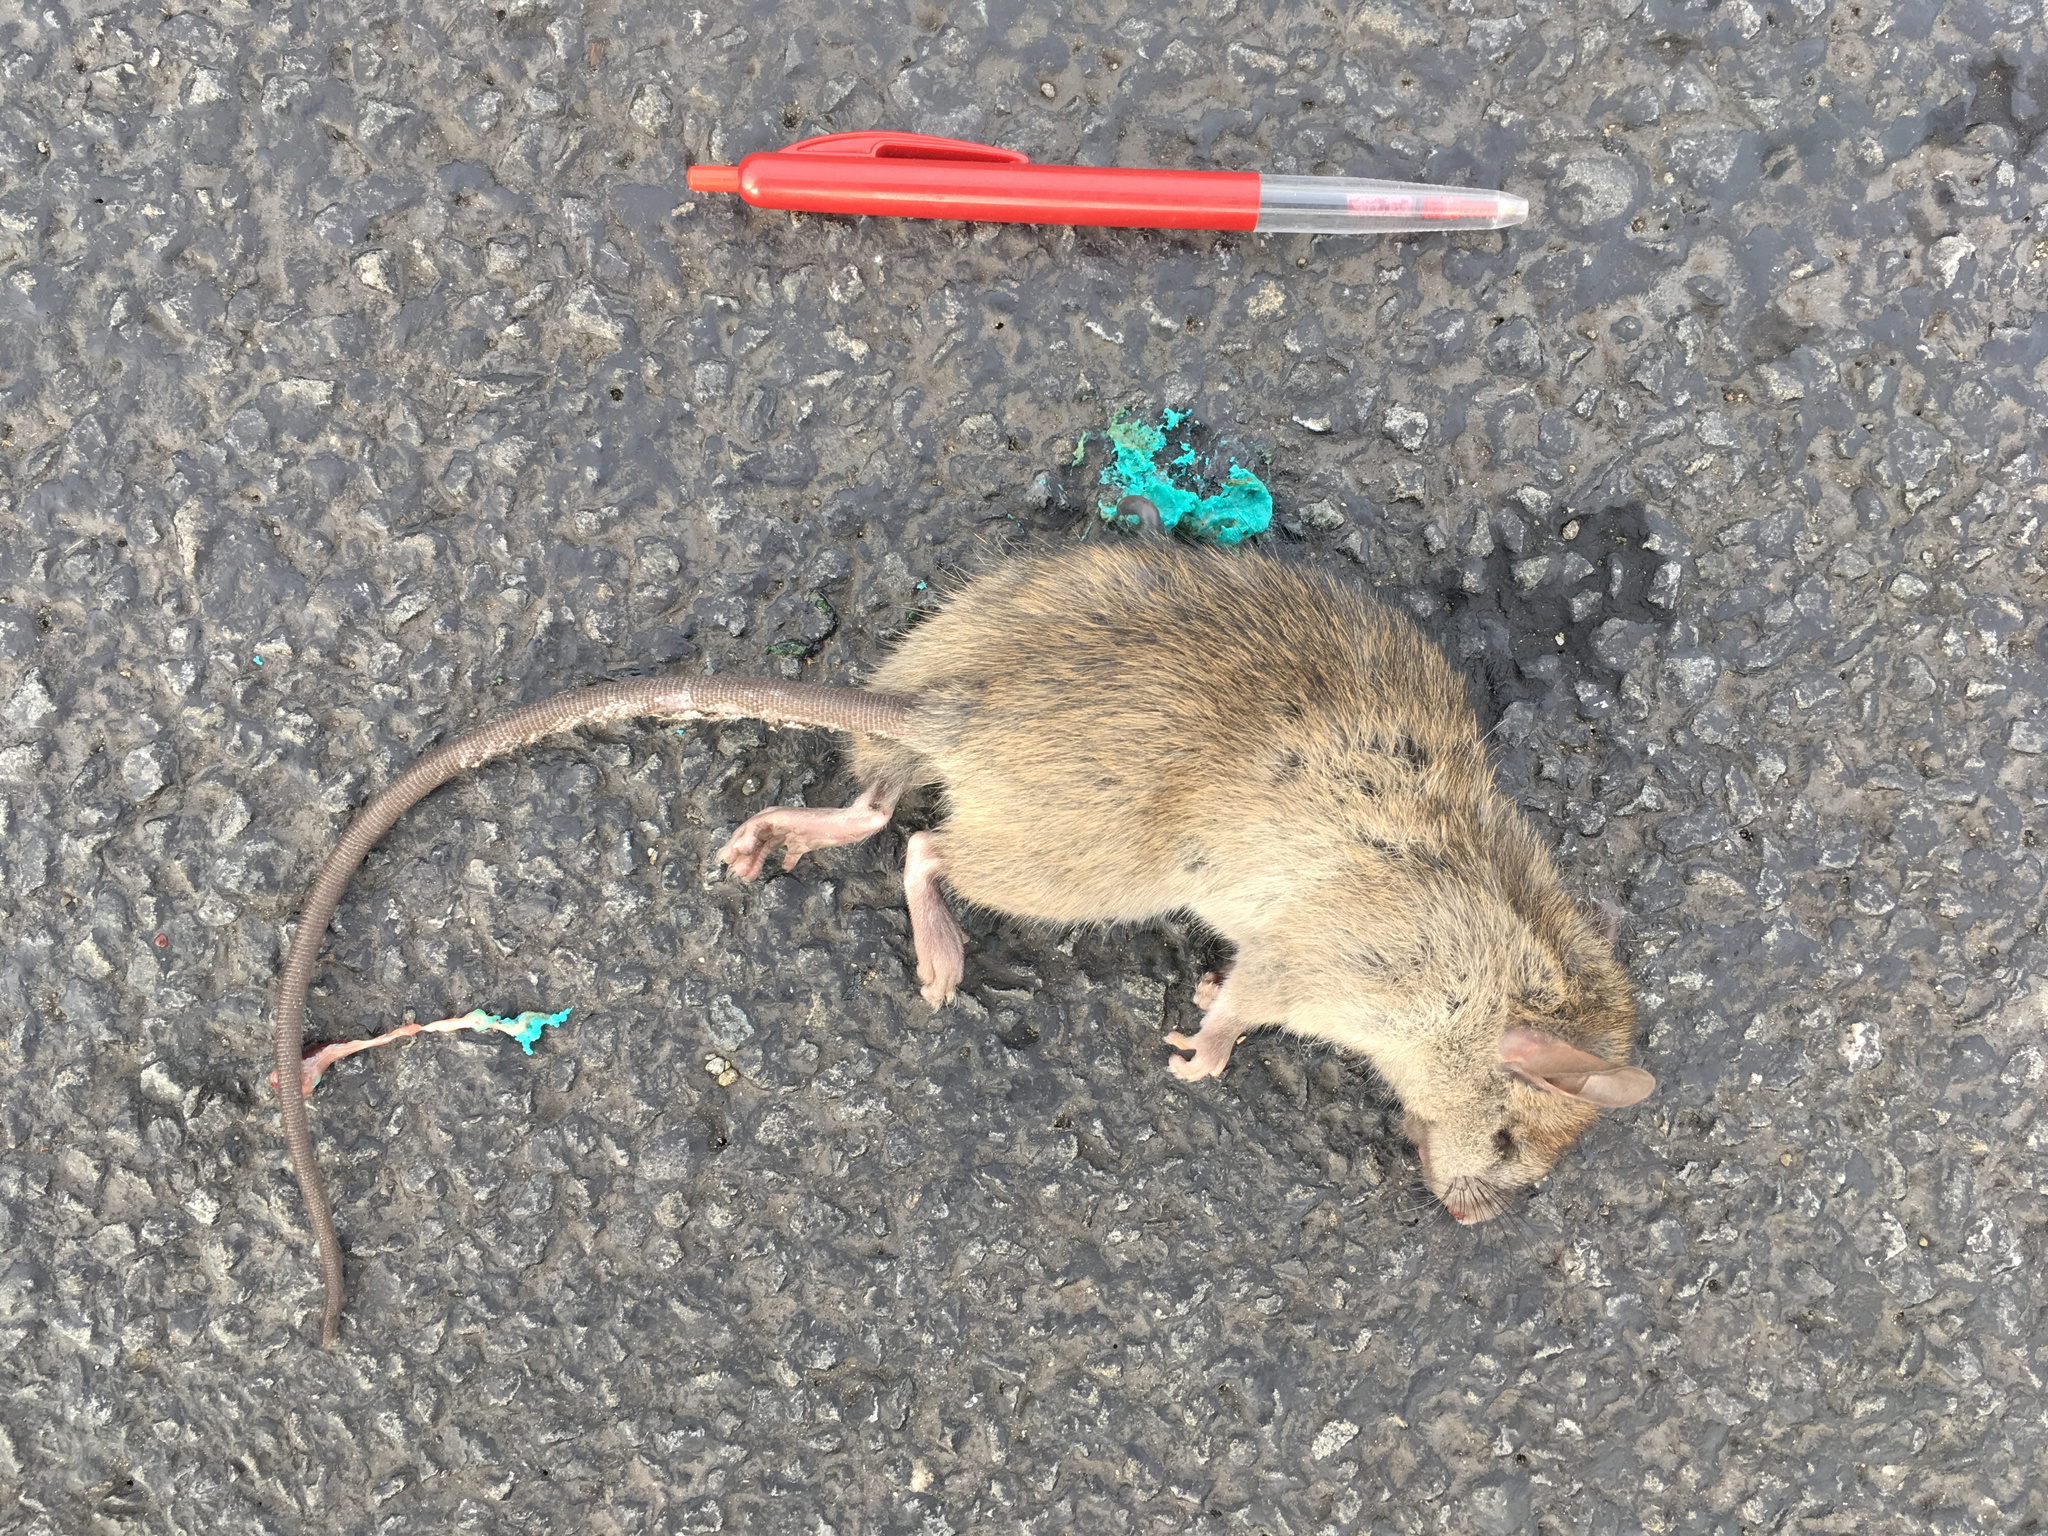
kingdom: Animalia
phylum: Chordata
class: Mammalia
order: Rodentia
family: Muridae
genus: Rattus
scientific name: Rattus rattus
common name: Black rat
